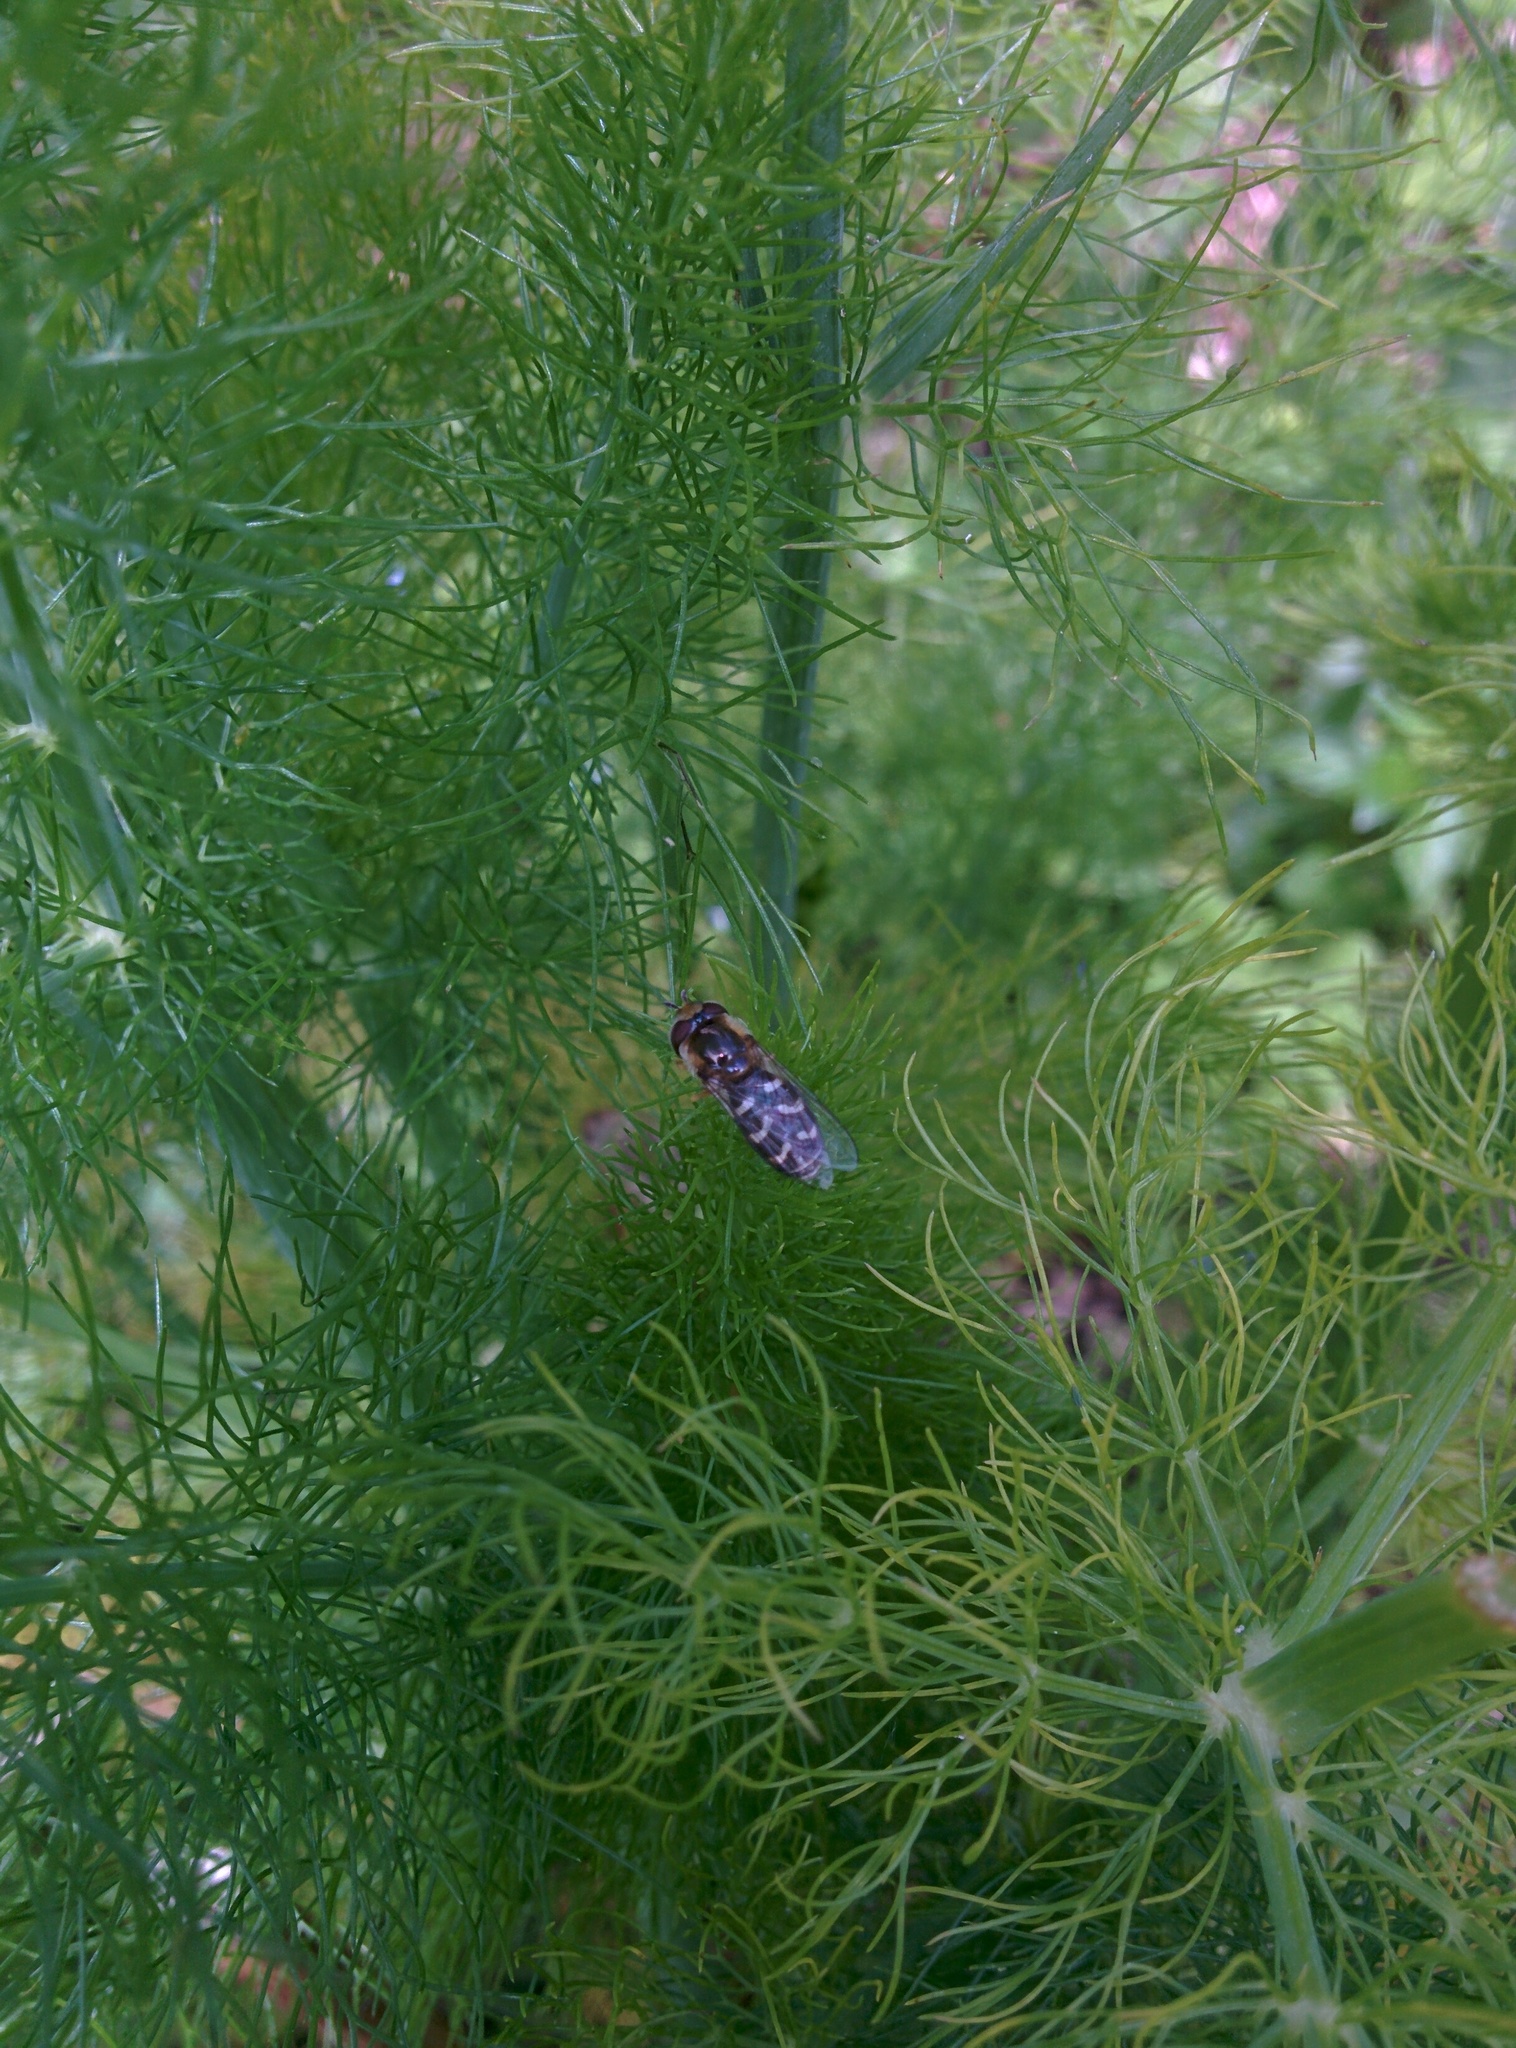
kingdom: Animalia
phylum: Arthropoda
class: Insecta
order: Diptera
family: Syrphidae
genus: Scaeva
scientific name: Scaeva pyrastri
